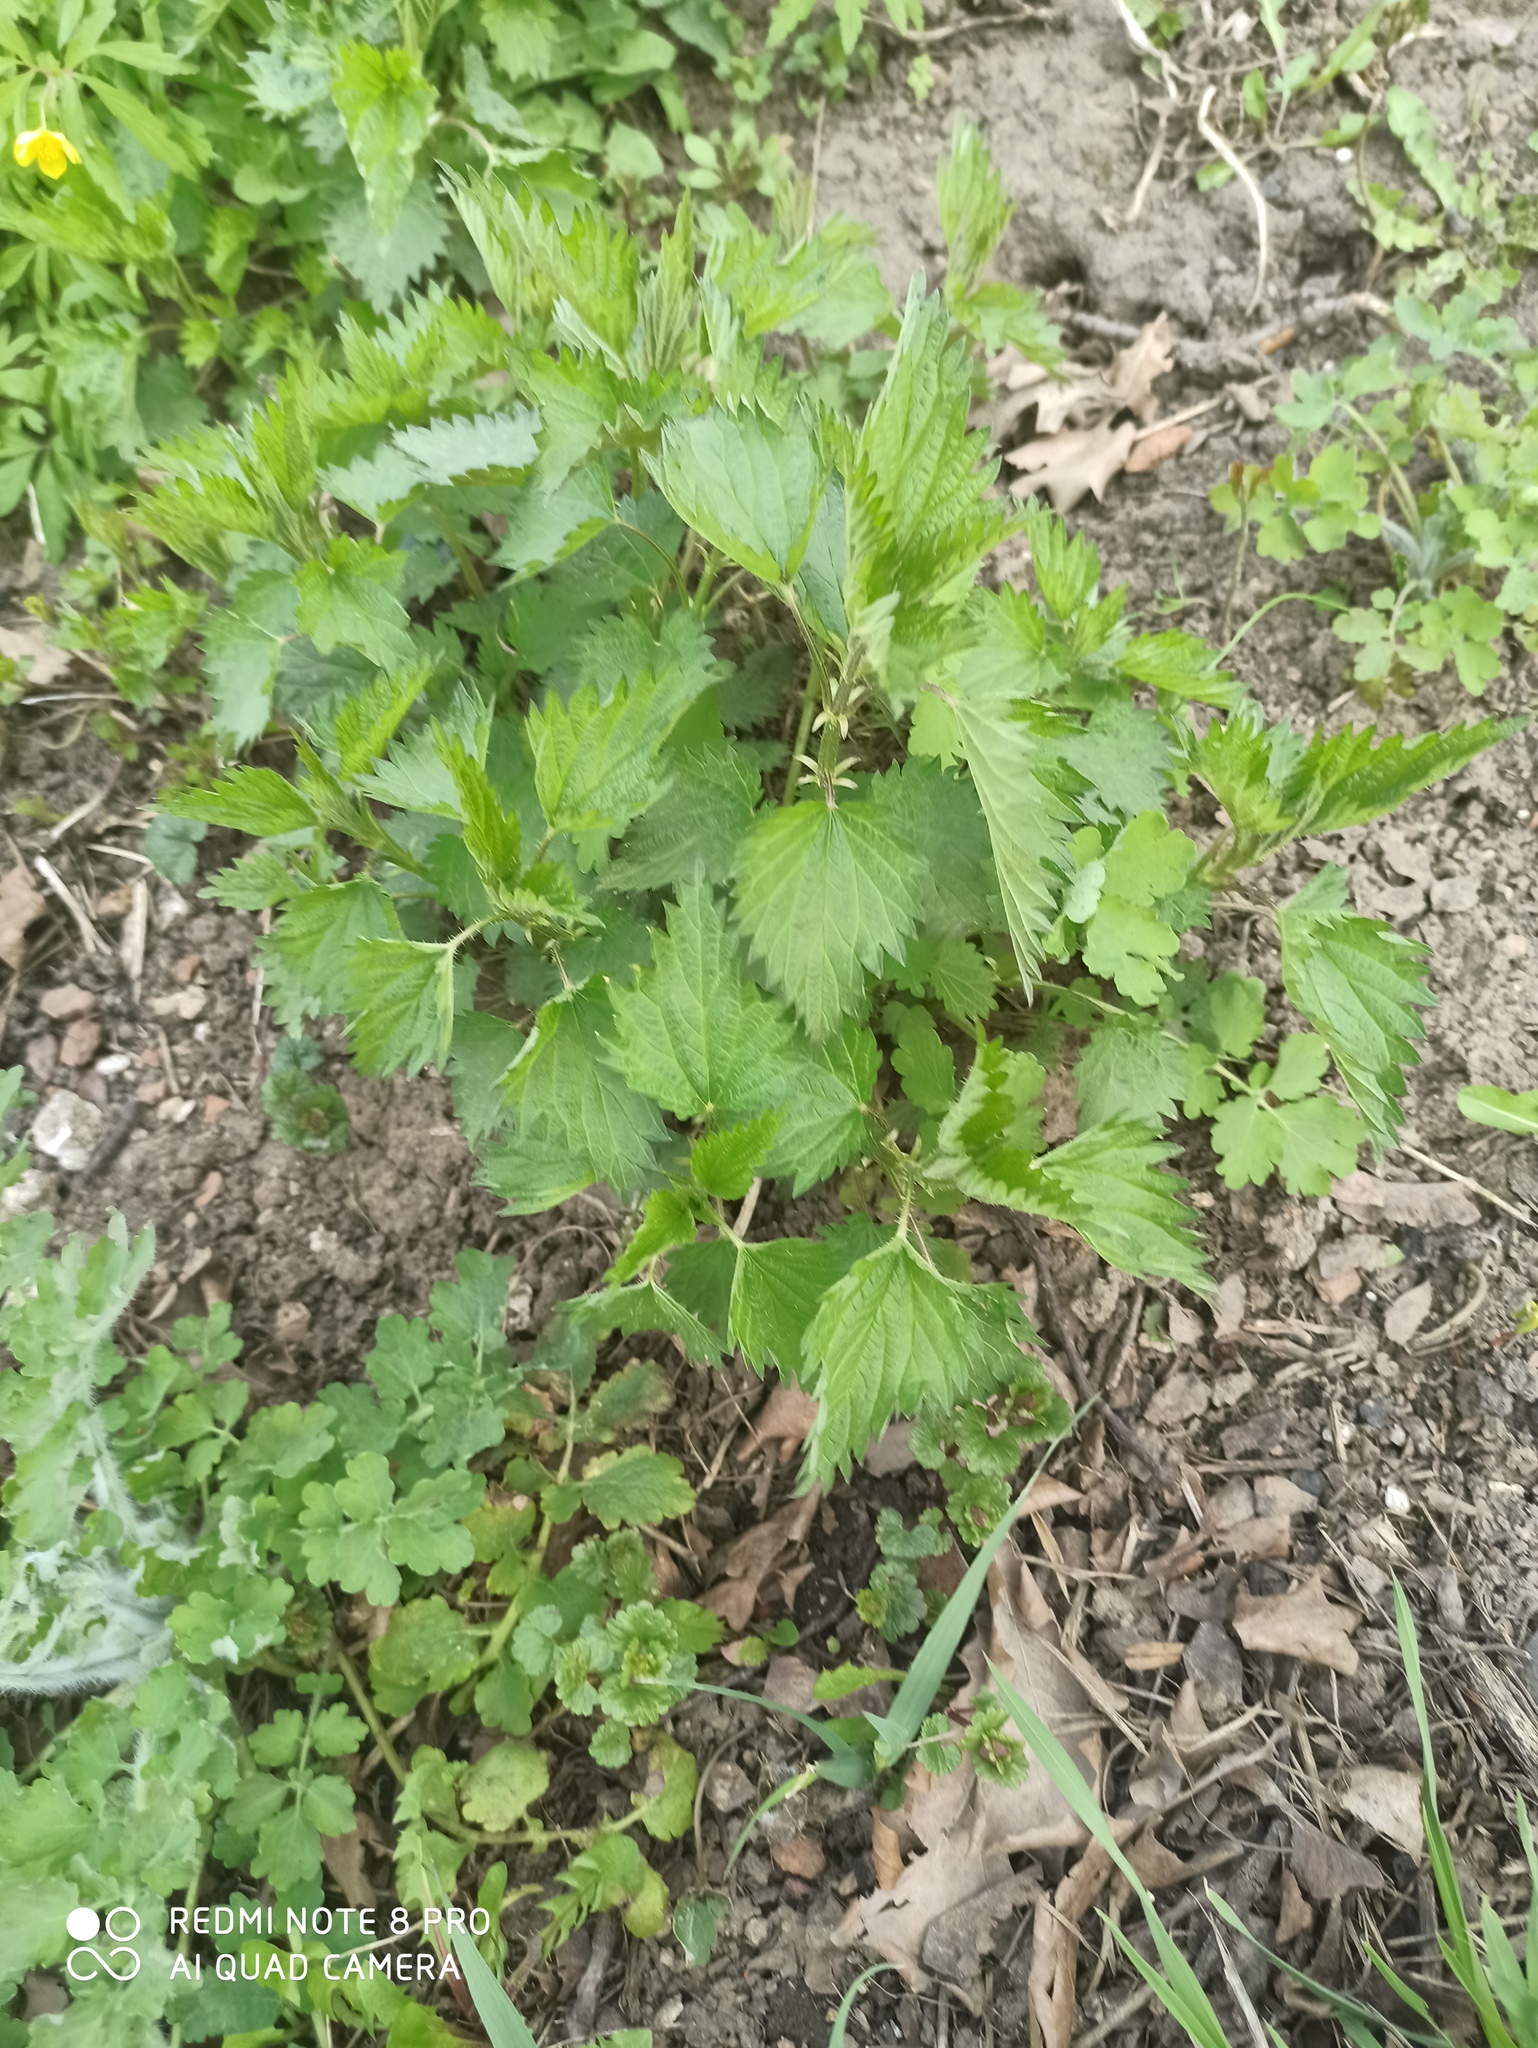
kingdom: Plantae
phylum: Tracheophyta
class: Magnoliopsida
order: Rosales
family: Urticaceae
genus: Urtica
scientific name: Urtica dioica
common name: Common nettle
